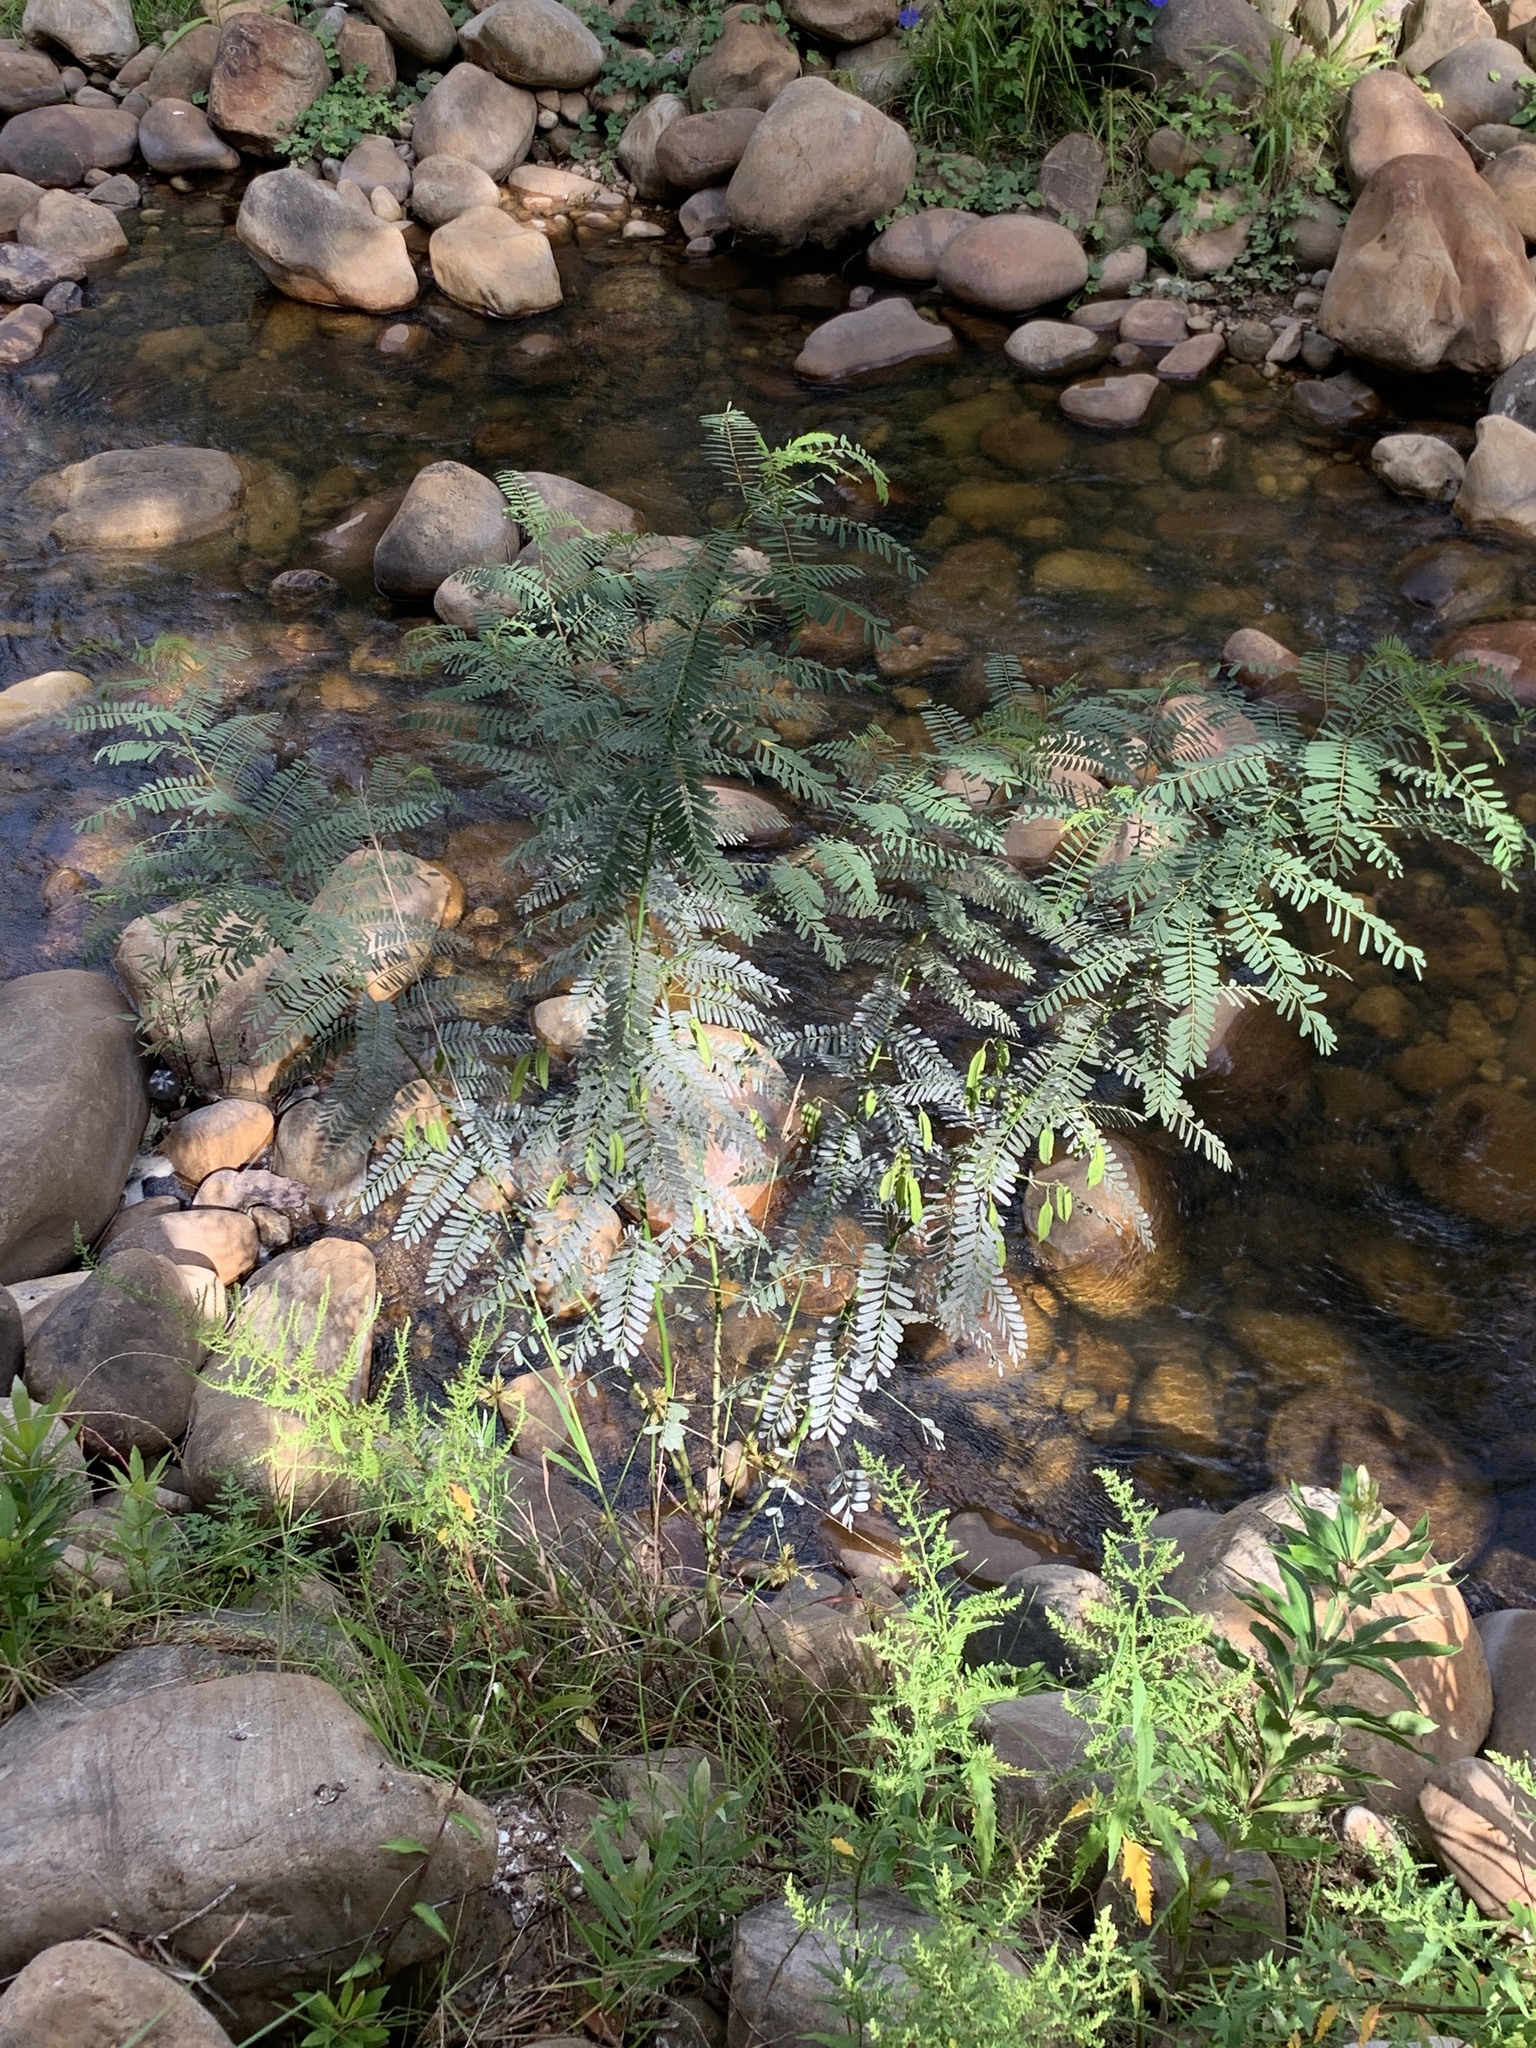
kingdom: Plantae
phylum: Tracheophyta
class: Magnoliopsida
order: Fabales
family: Fabaceae
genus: Sesbania
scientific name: Sesbania punicea
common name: Rattlebox
